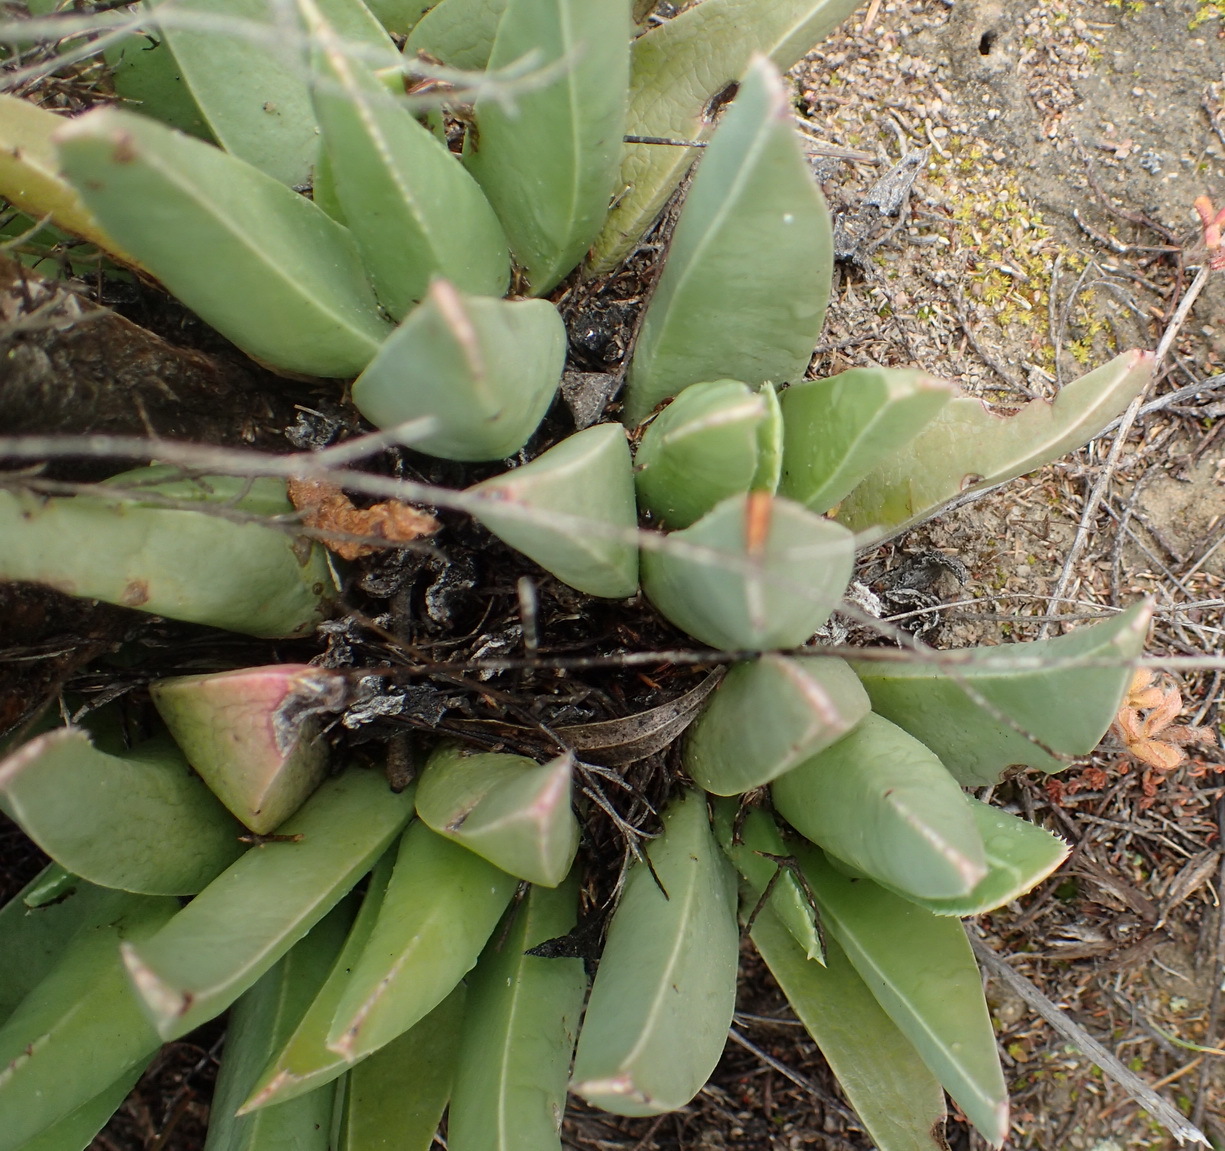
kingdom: Plantae
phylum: Tracheophyta
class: Magnoliopsida
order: Caryophyllales
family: Aizoaceae
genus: Acrodon
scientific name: Acrodon bellidiflorus
